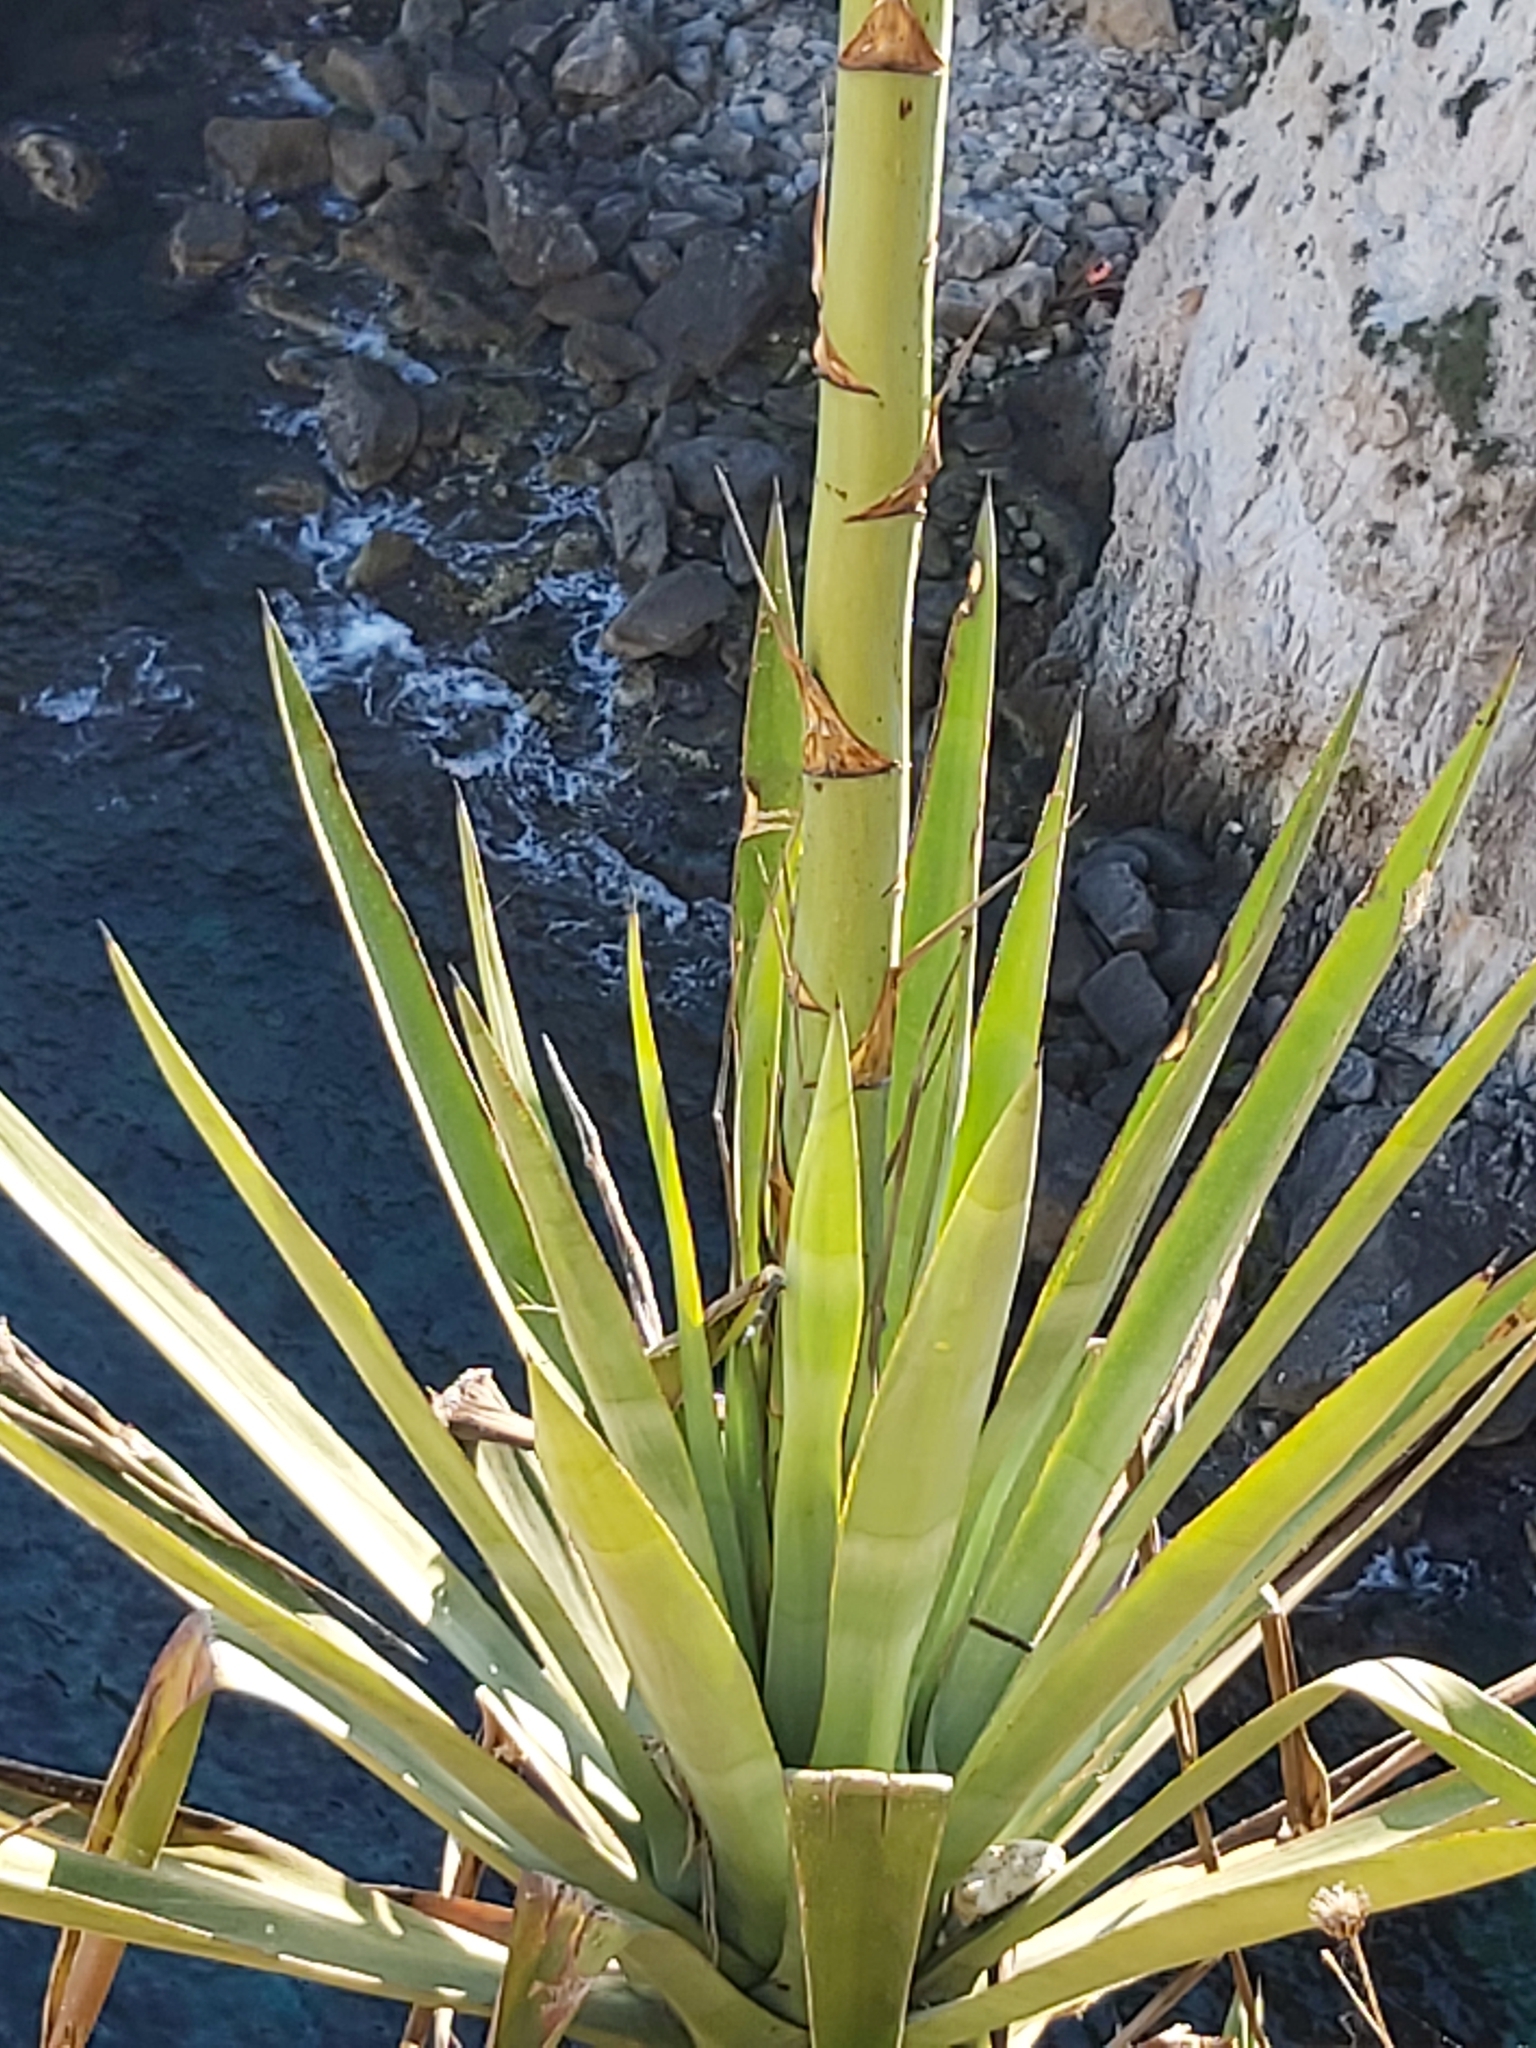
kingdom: Plantae
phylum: Tracheophyta
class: Liliopsida
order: Asparagales
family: Asparagaceae
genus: Agave
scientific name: Agave sisalana
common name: Sisal hemp
